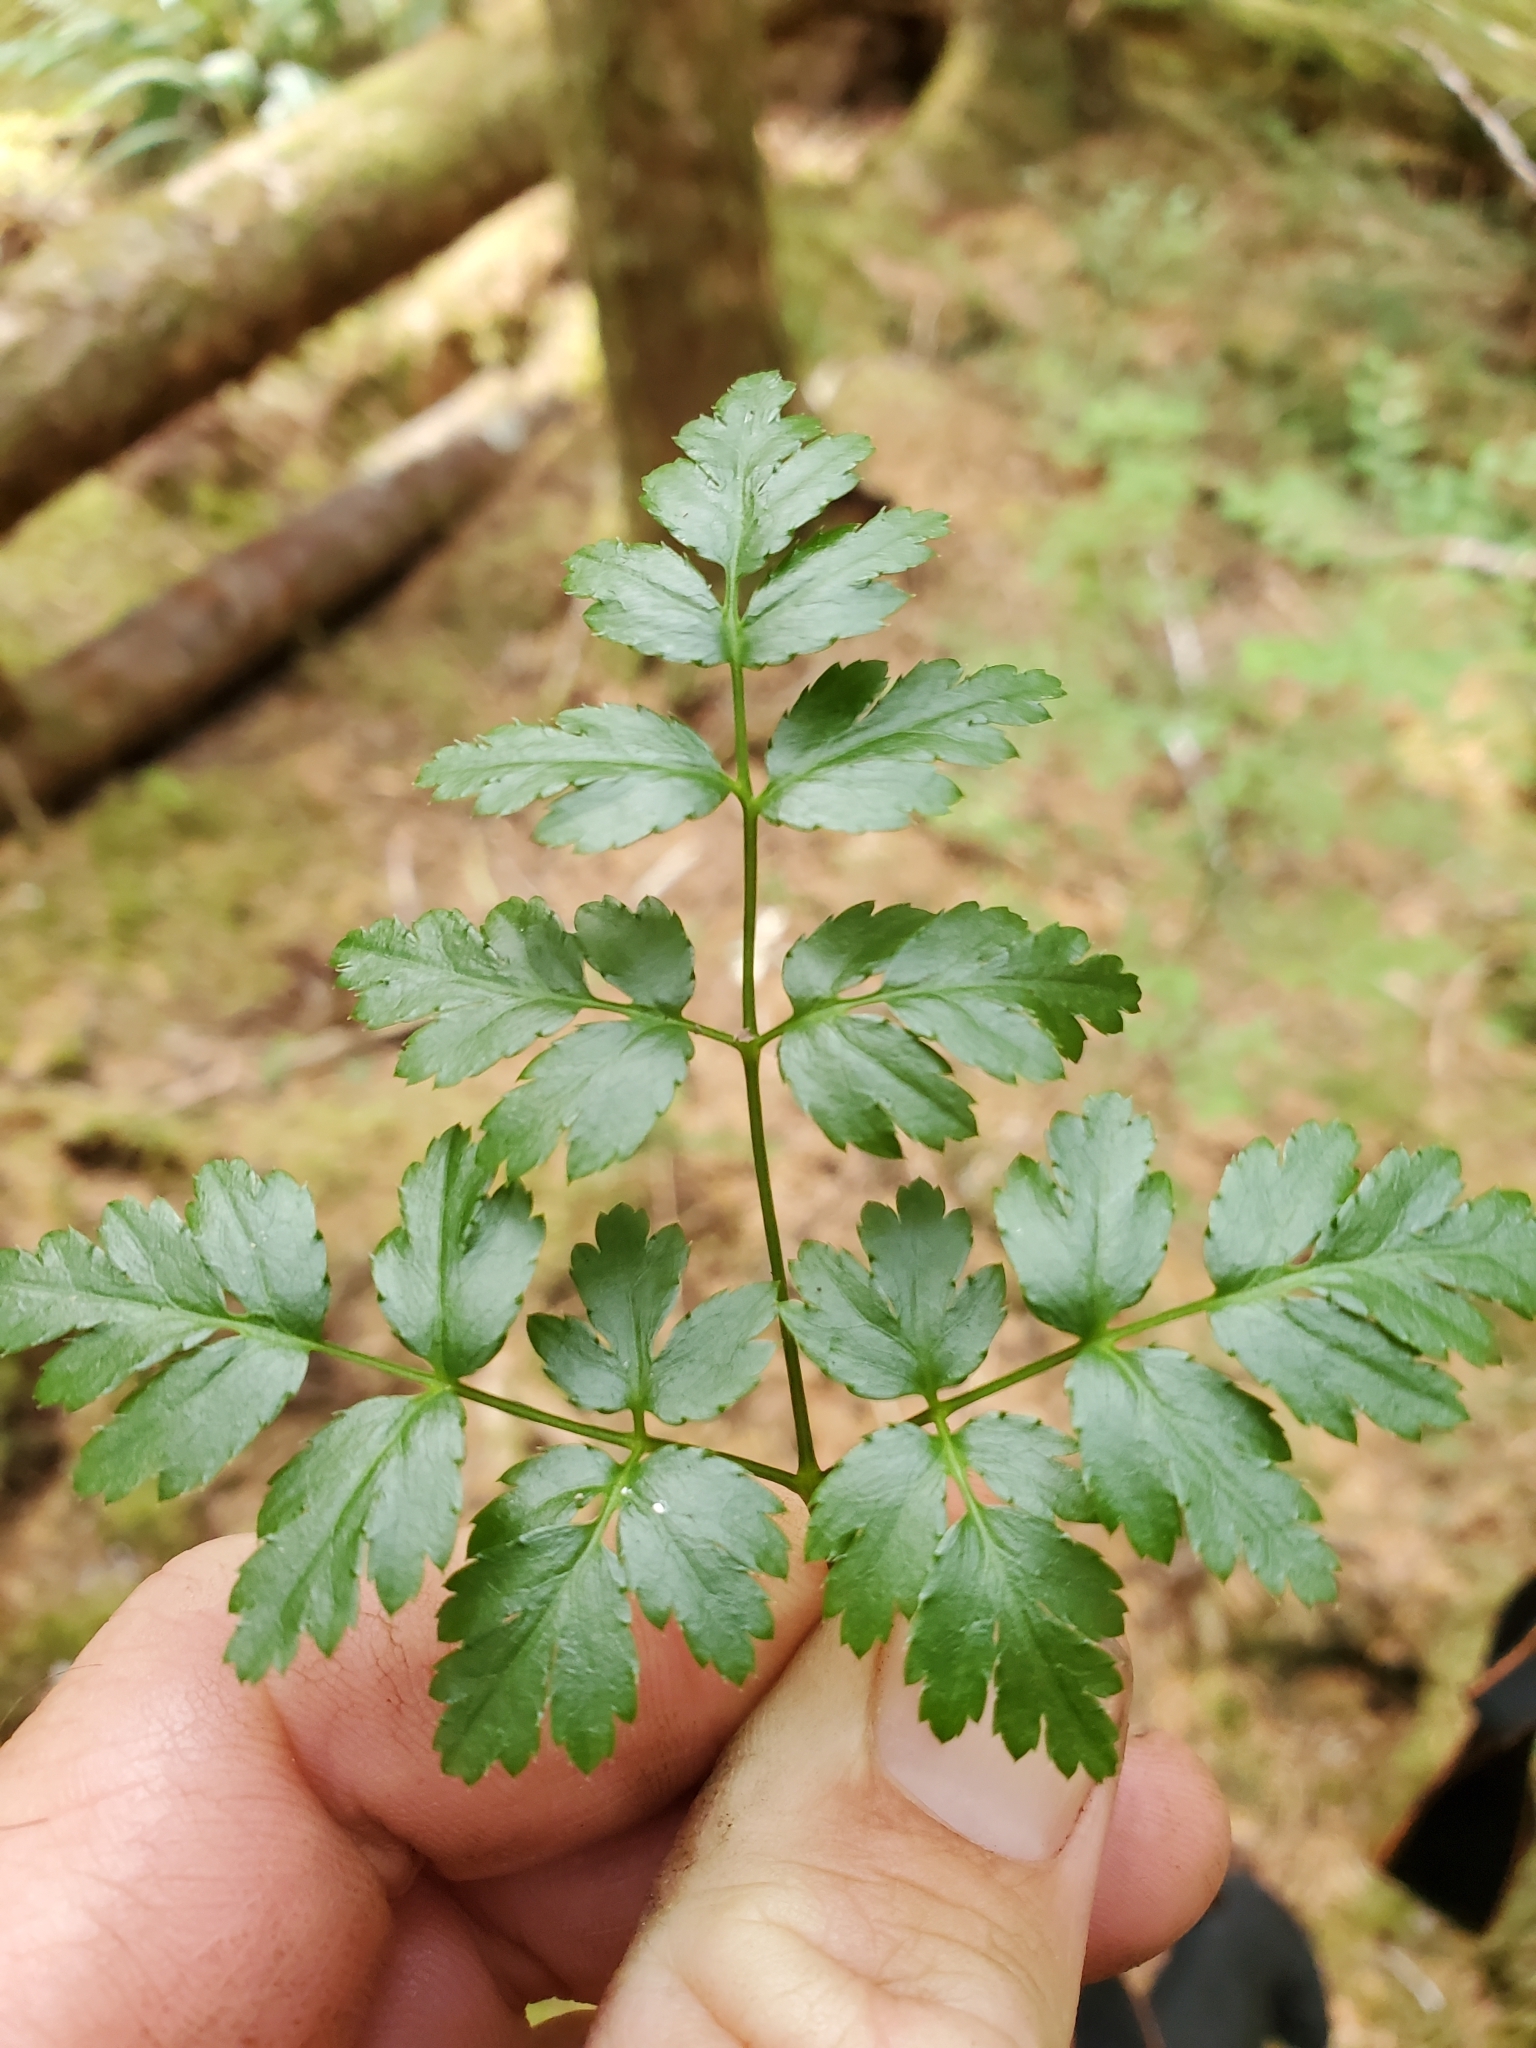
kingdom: Plantae
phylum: Tracheophyta
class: Magnoliopsida
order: Ranunculales
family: Ranunculaceae
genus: Coptis
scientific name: Coptis aspleniifolia
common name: Fern-leaved goldthread
